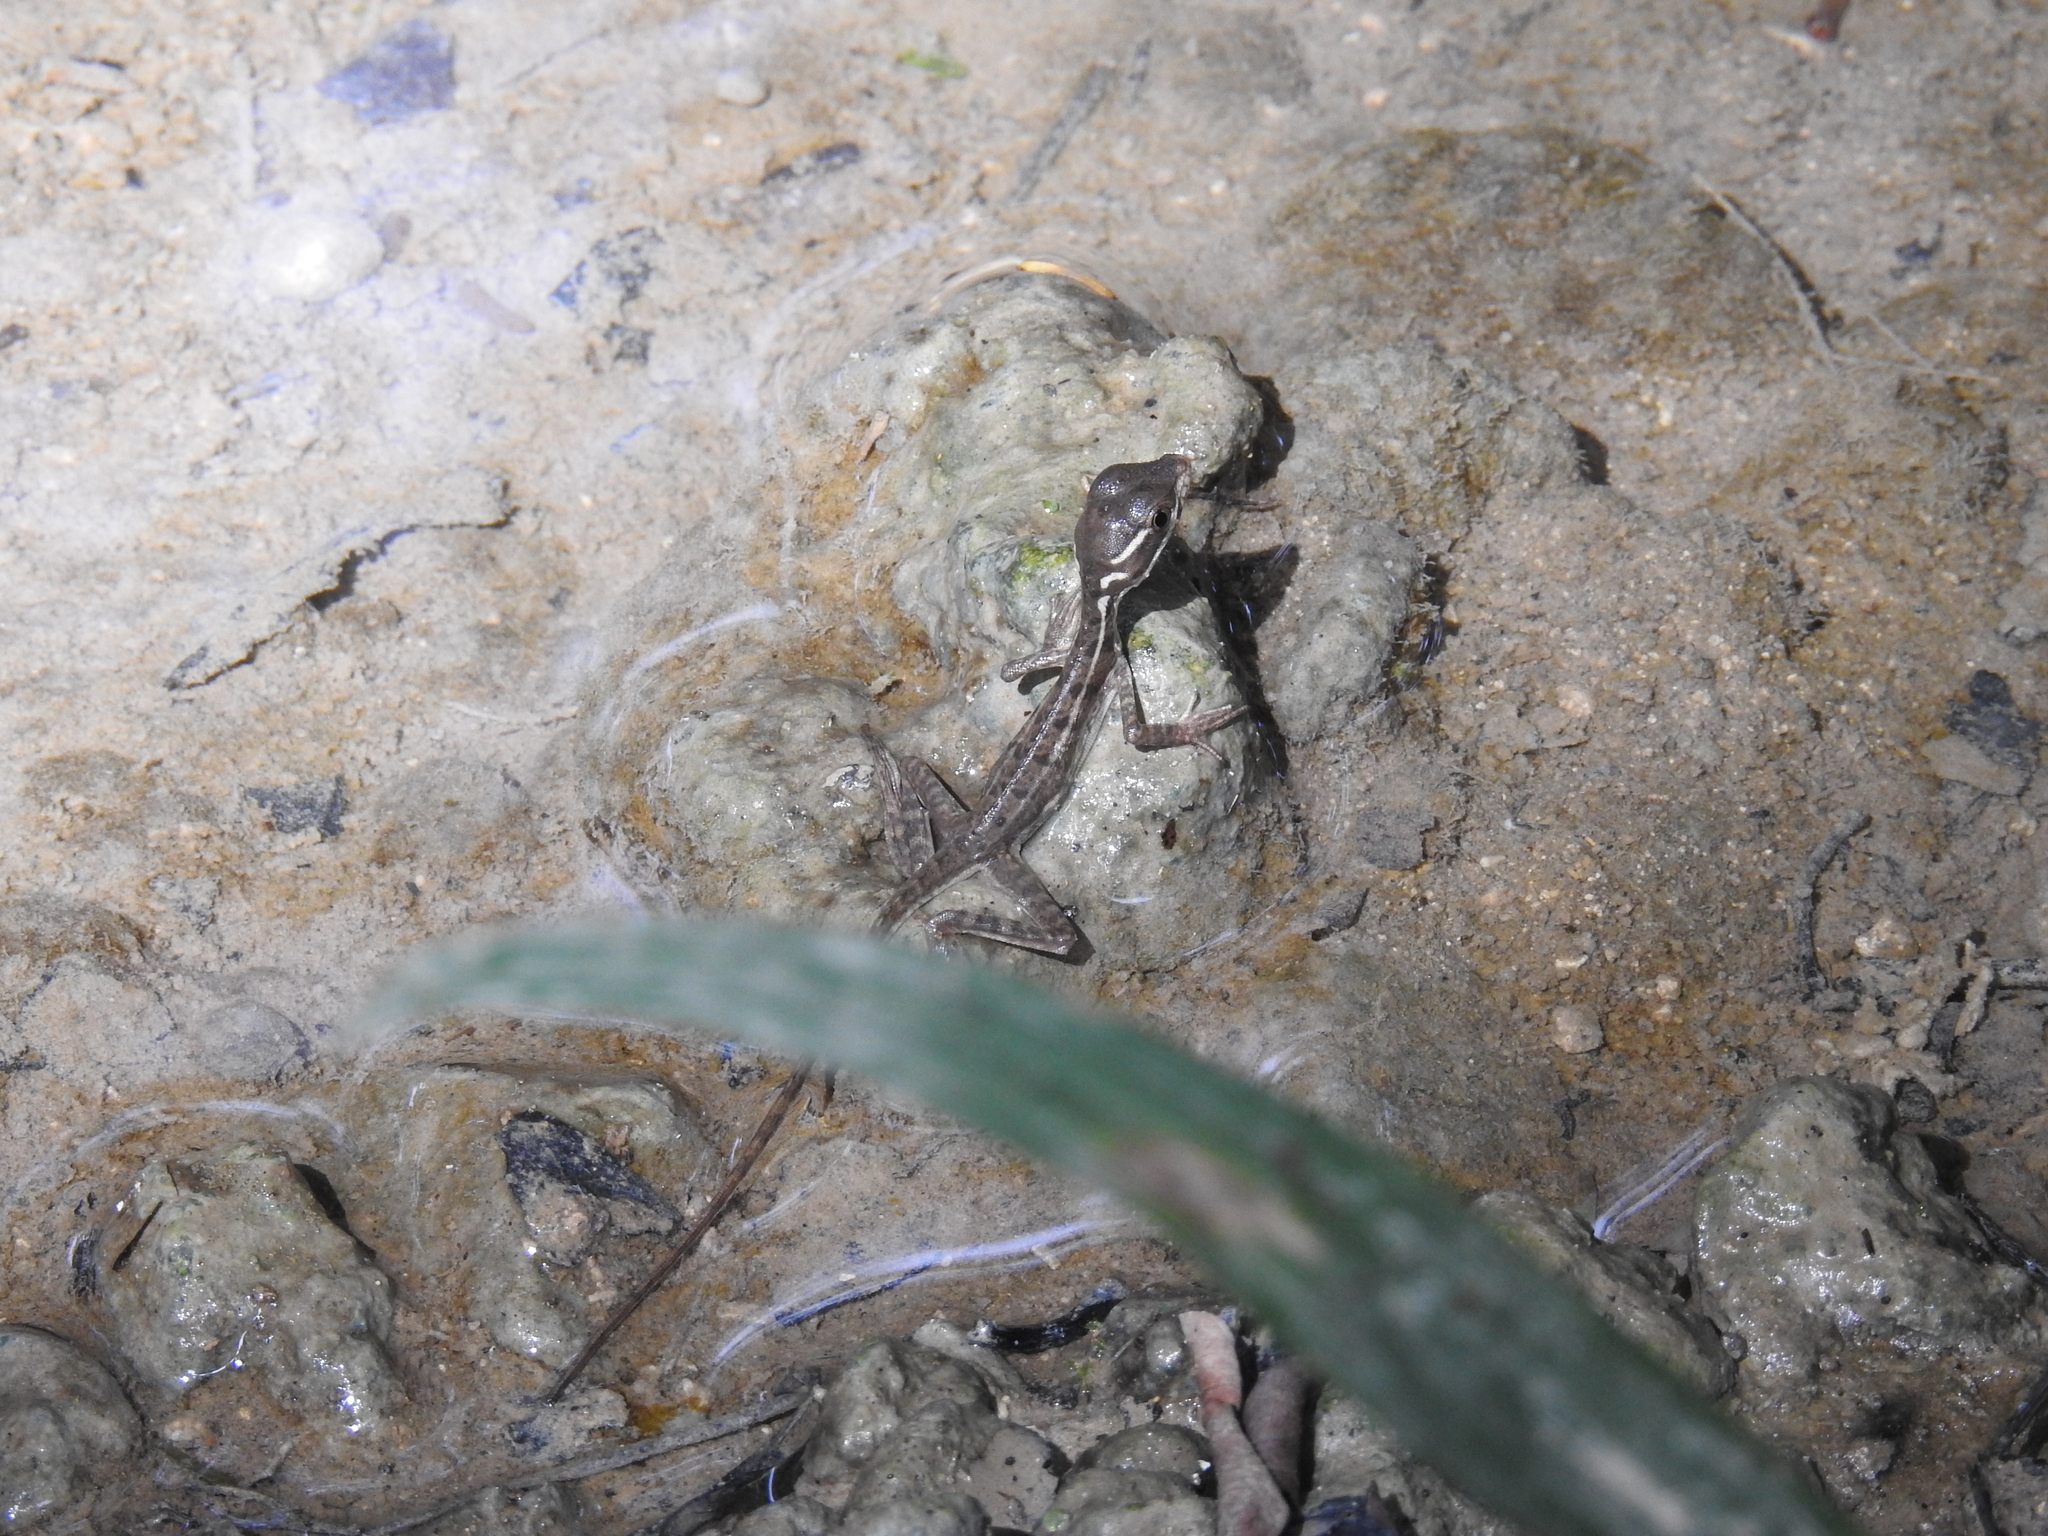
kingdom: Animalia
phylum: Chordata
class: Squamata
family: Corytophanidae
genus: Basiliscus
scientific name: Basiliscus basiliscus
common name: Common basilisk
